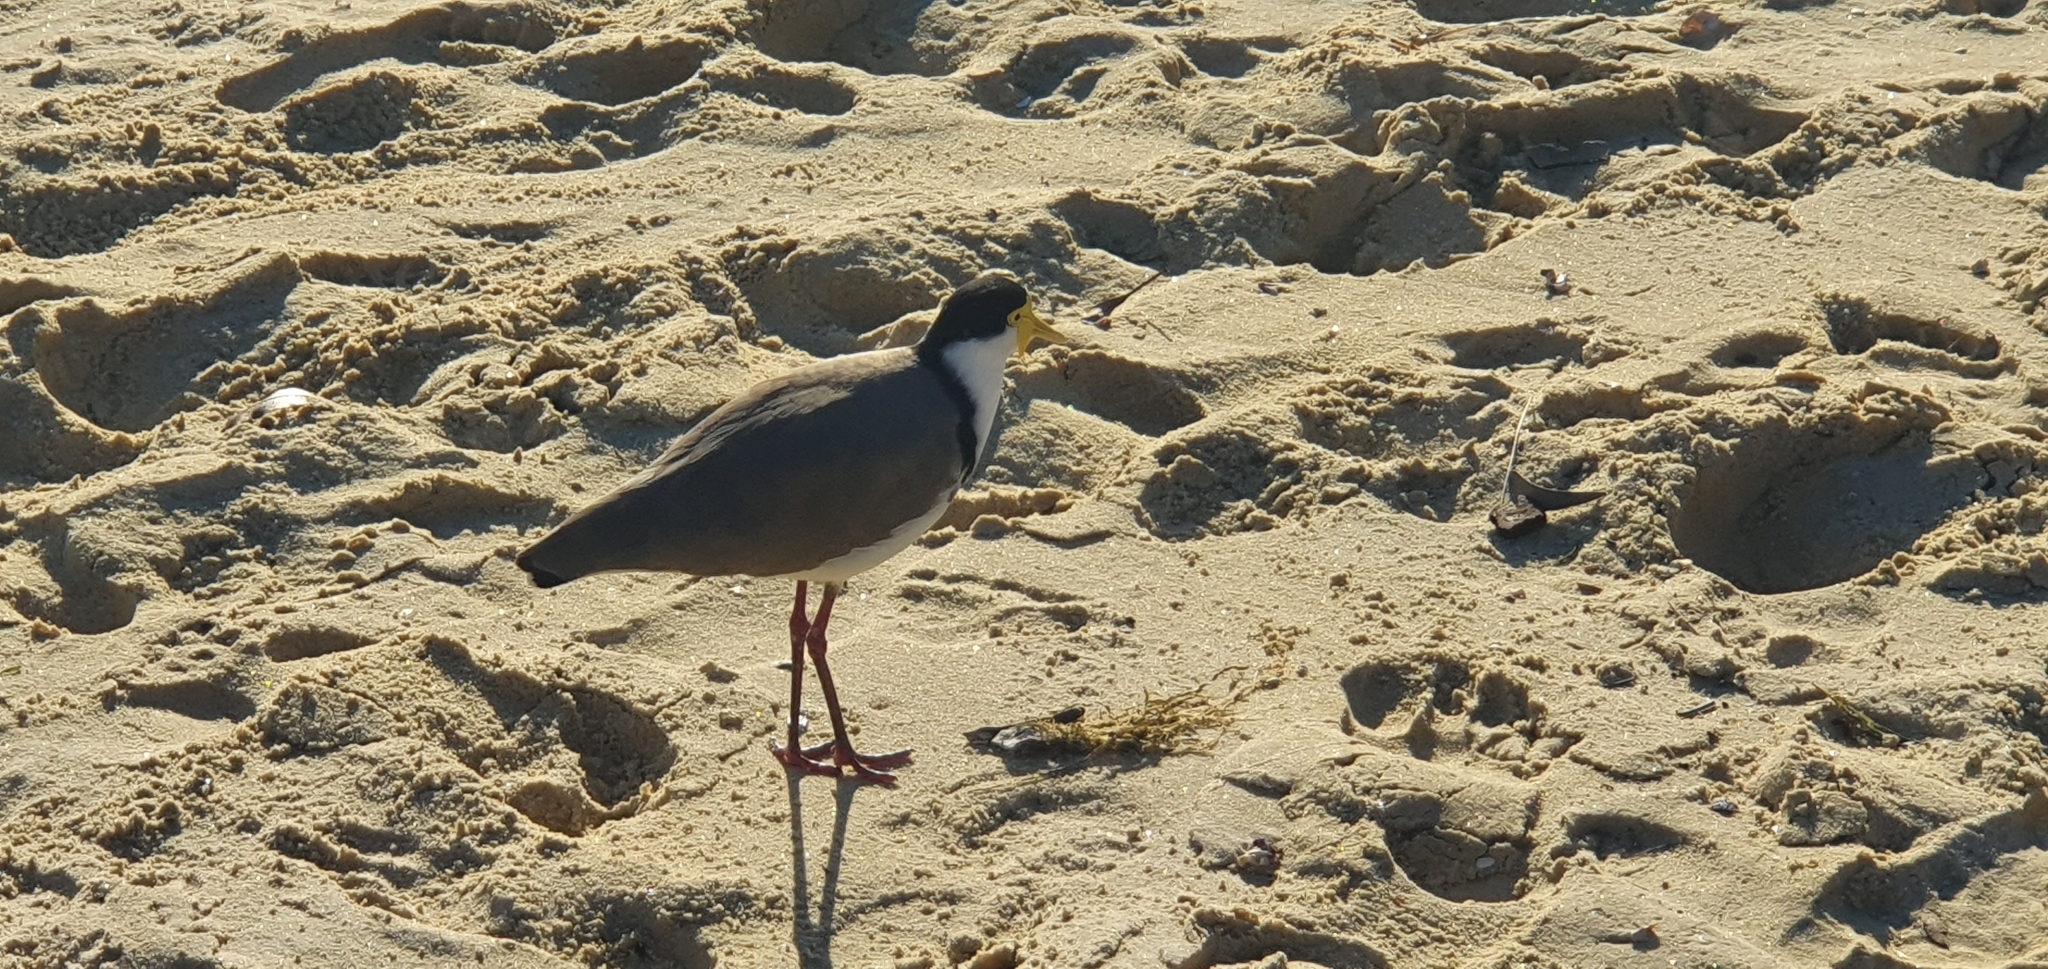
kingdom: Animalia
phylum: Chordata
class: Aves
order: Charadriiformes
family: Charadriidae
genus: Vanellus
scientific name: Vanellus miles
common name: Masked lapwing
